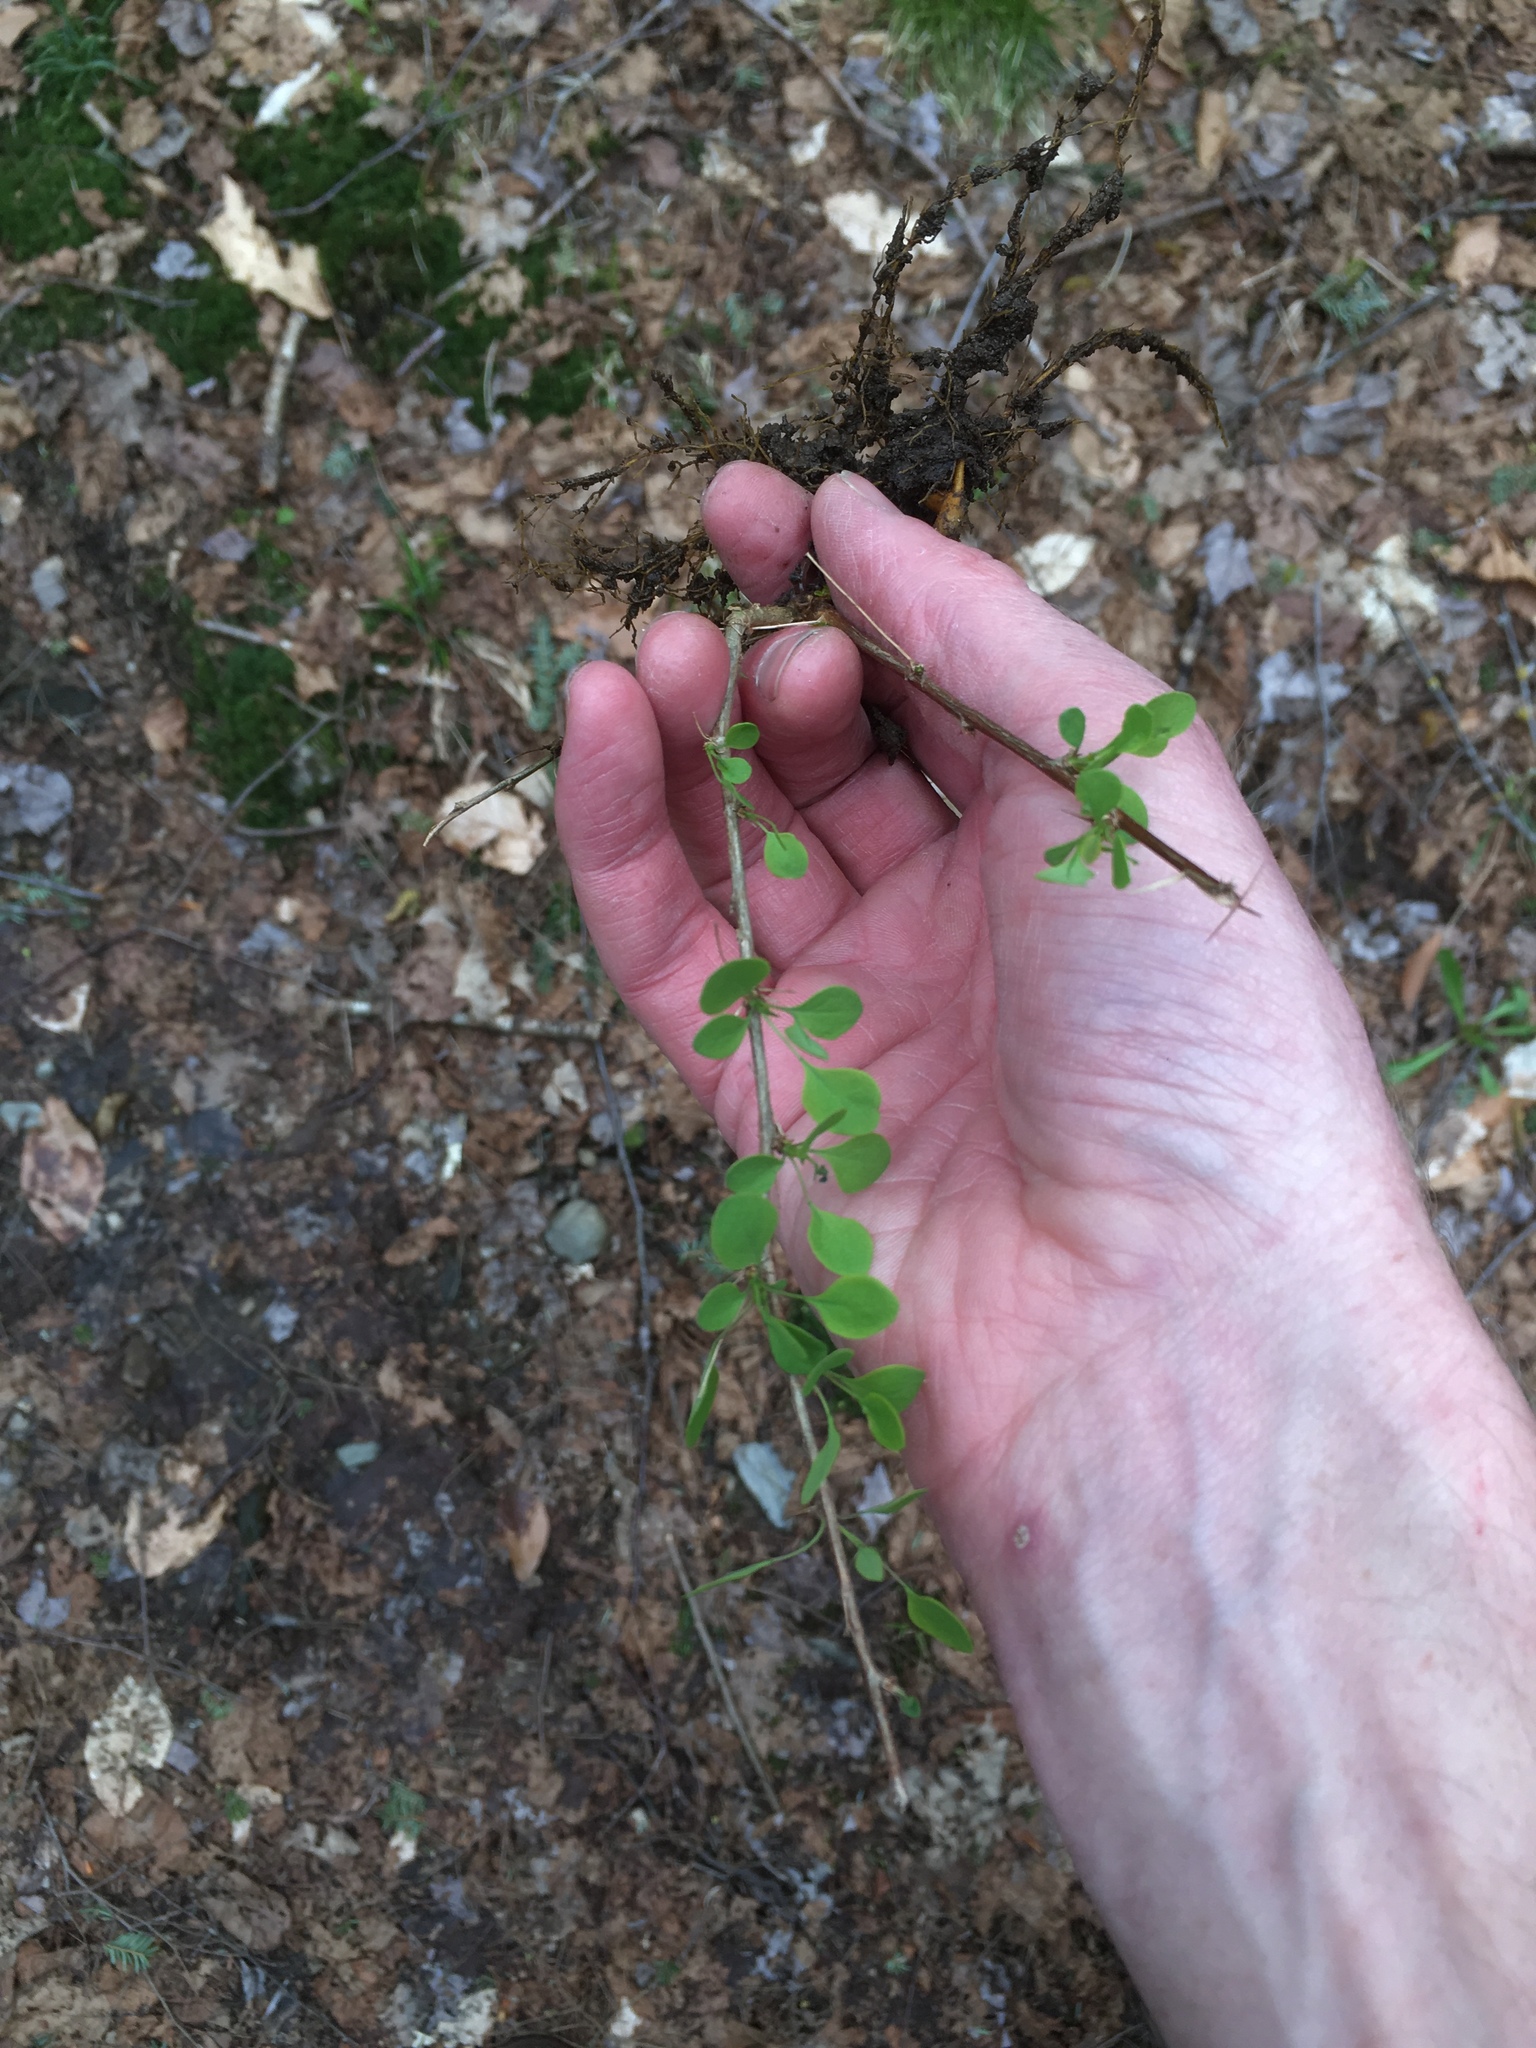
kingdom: Plantae
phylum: Tracheophyta
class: Magnoliopsida
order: Ranunculales
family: Berberidaceae
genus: Berberis
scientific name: Berberis thunbergii
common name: Japanese barberry
